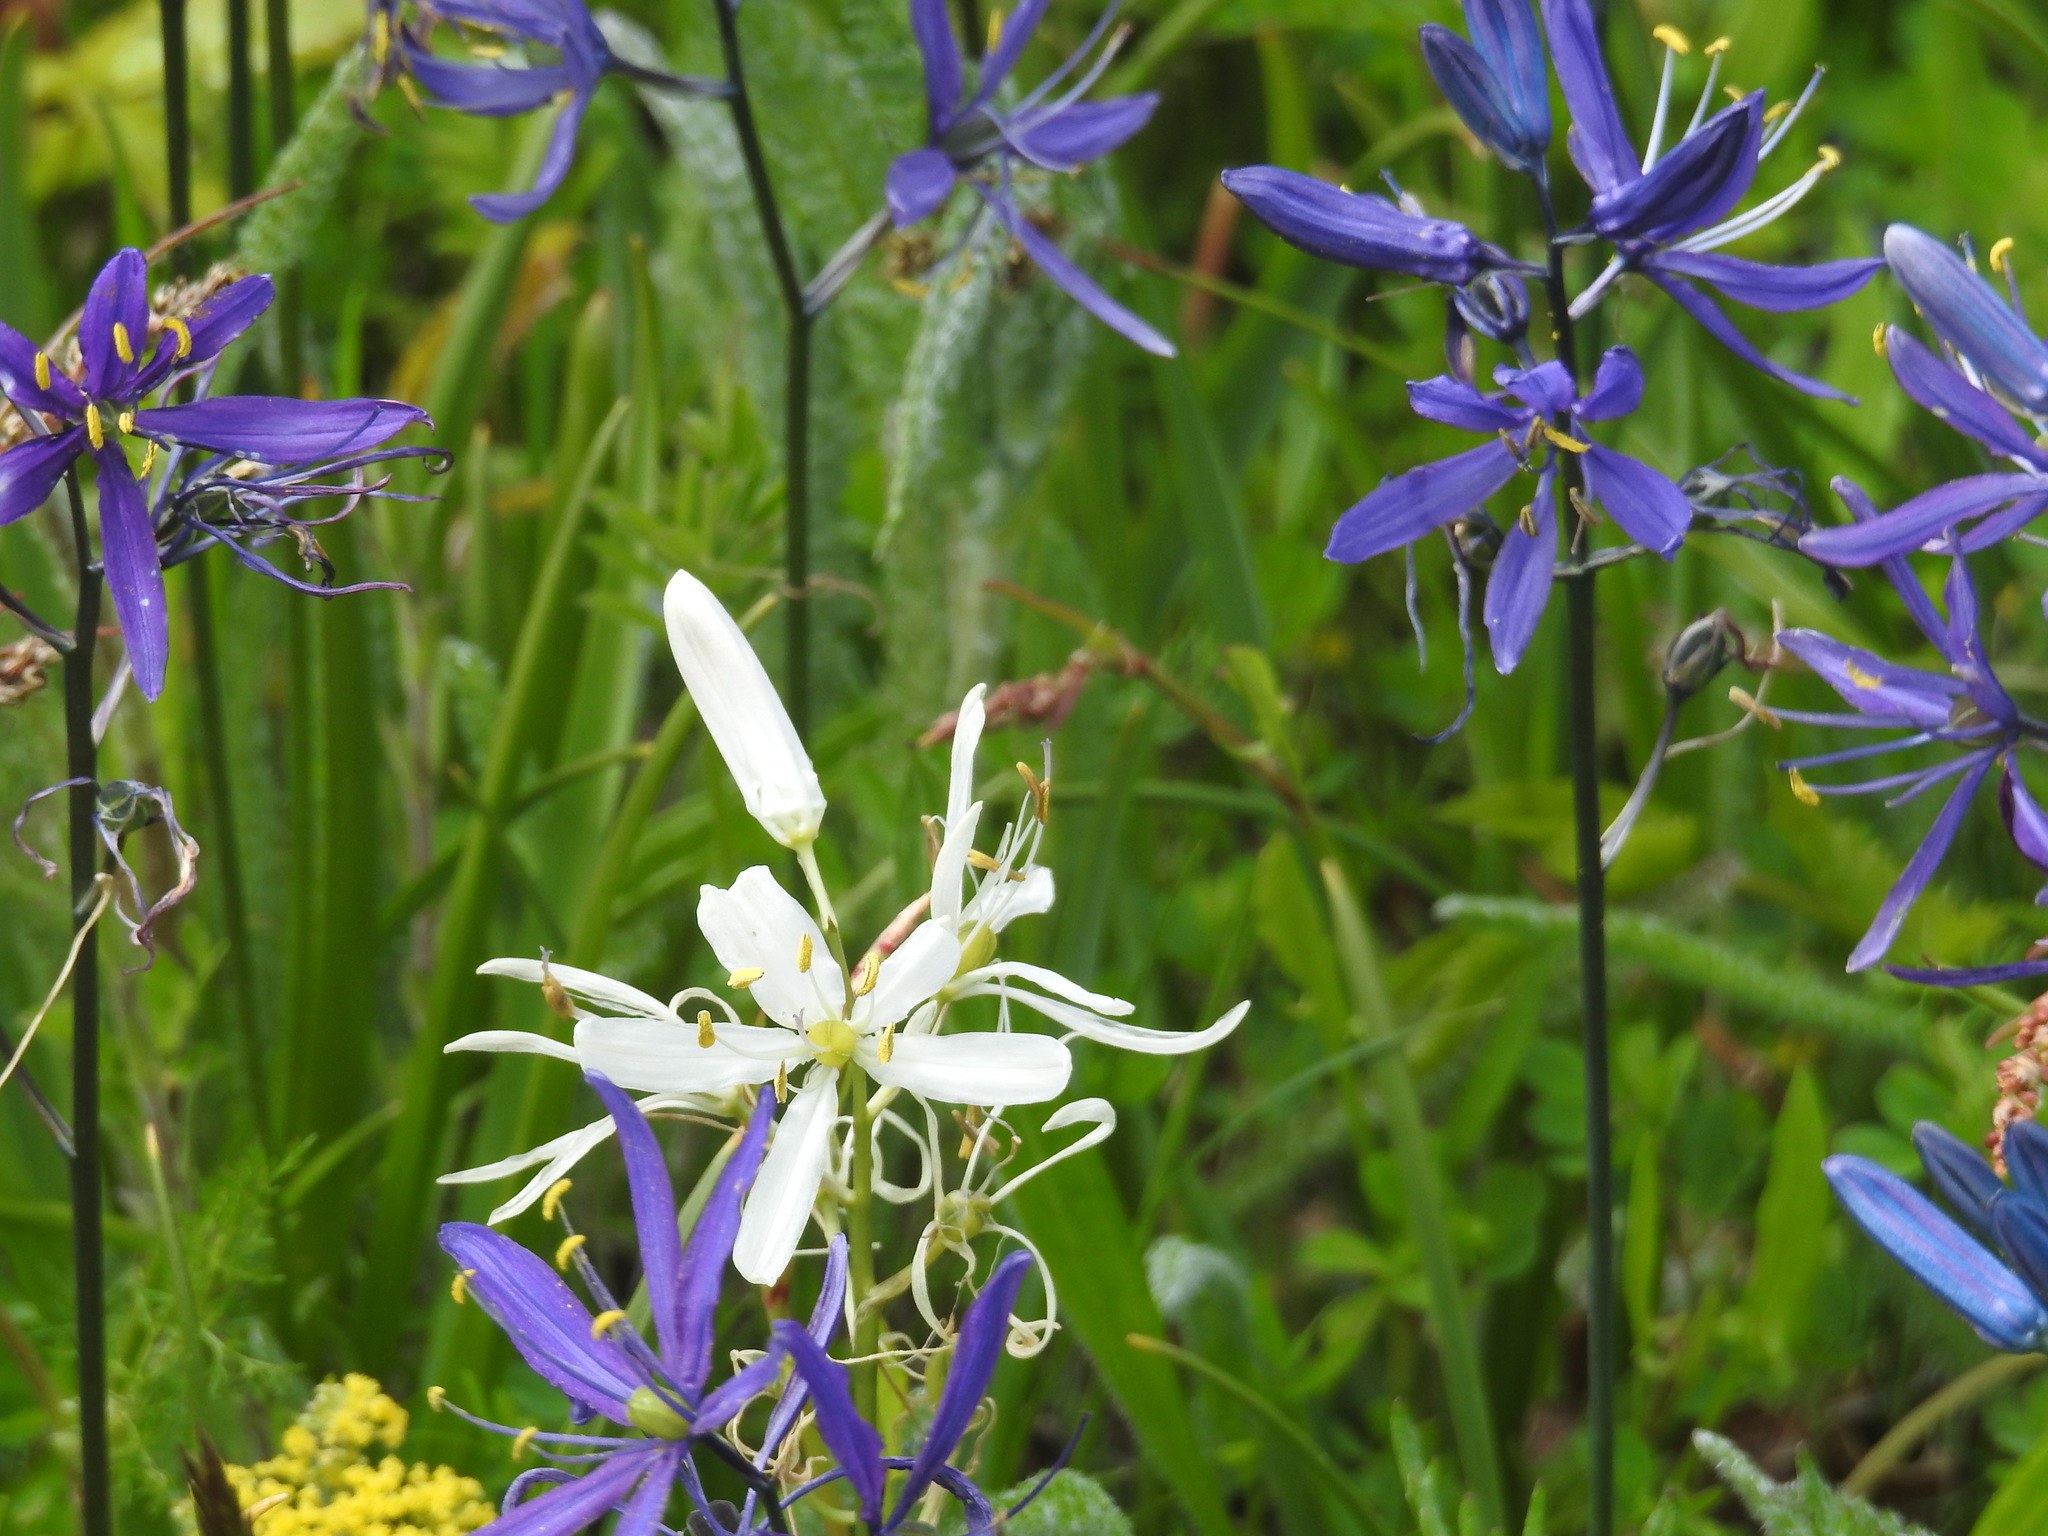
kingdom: Plantae
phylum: Tracheophyta
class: Liliopsida
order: Asparagales
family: Asparagaceae
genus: Camassia
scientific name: Camassia quamash
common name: Common camas
